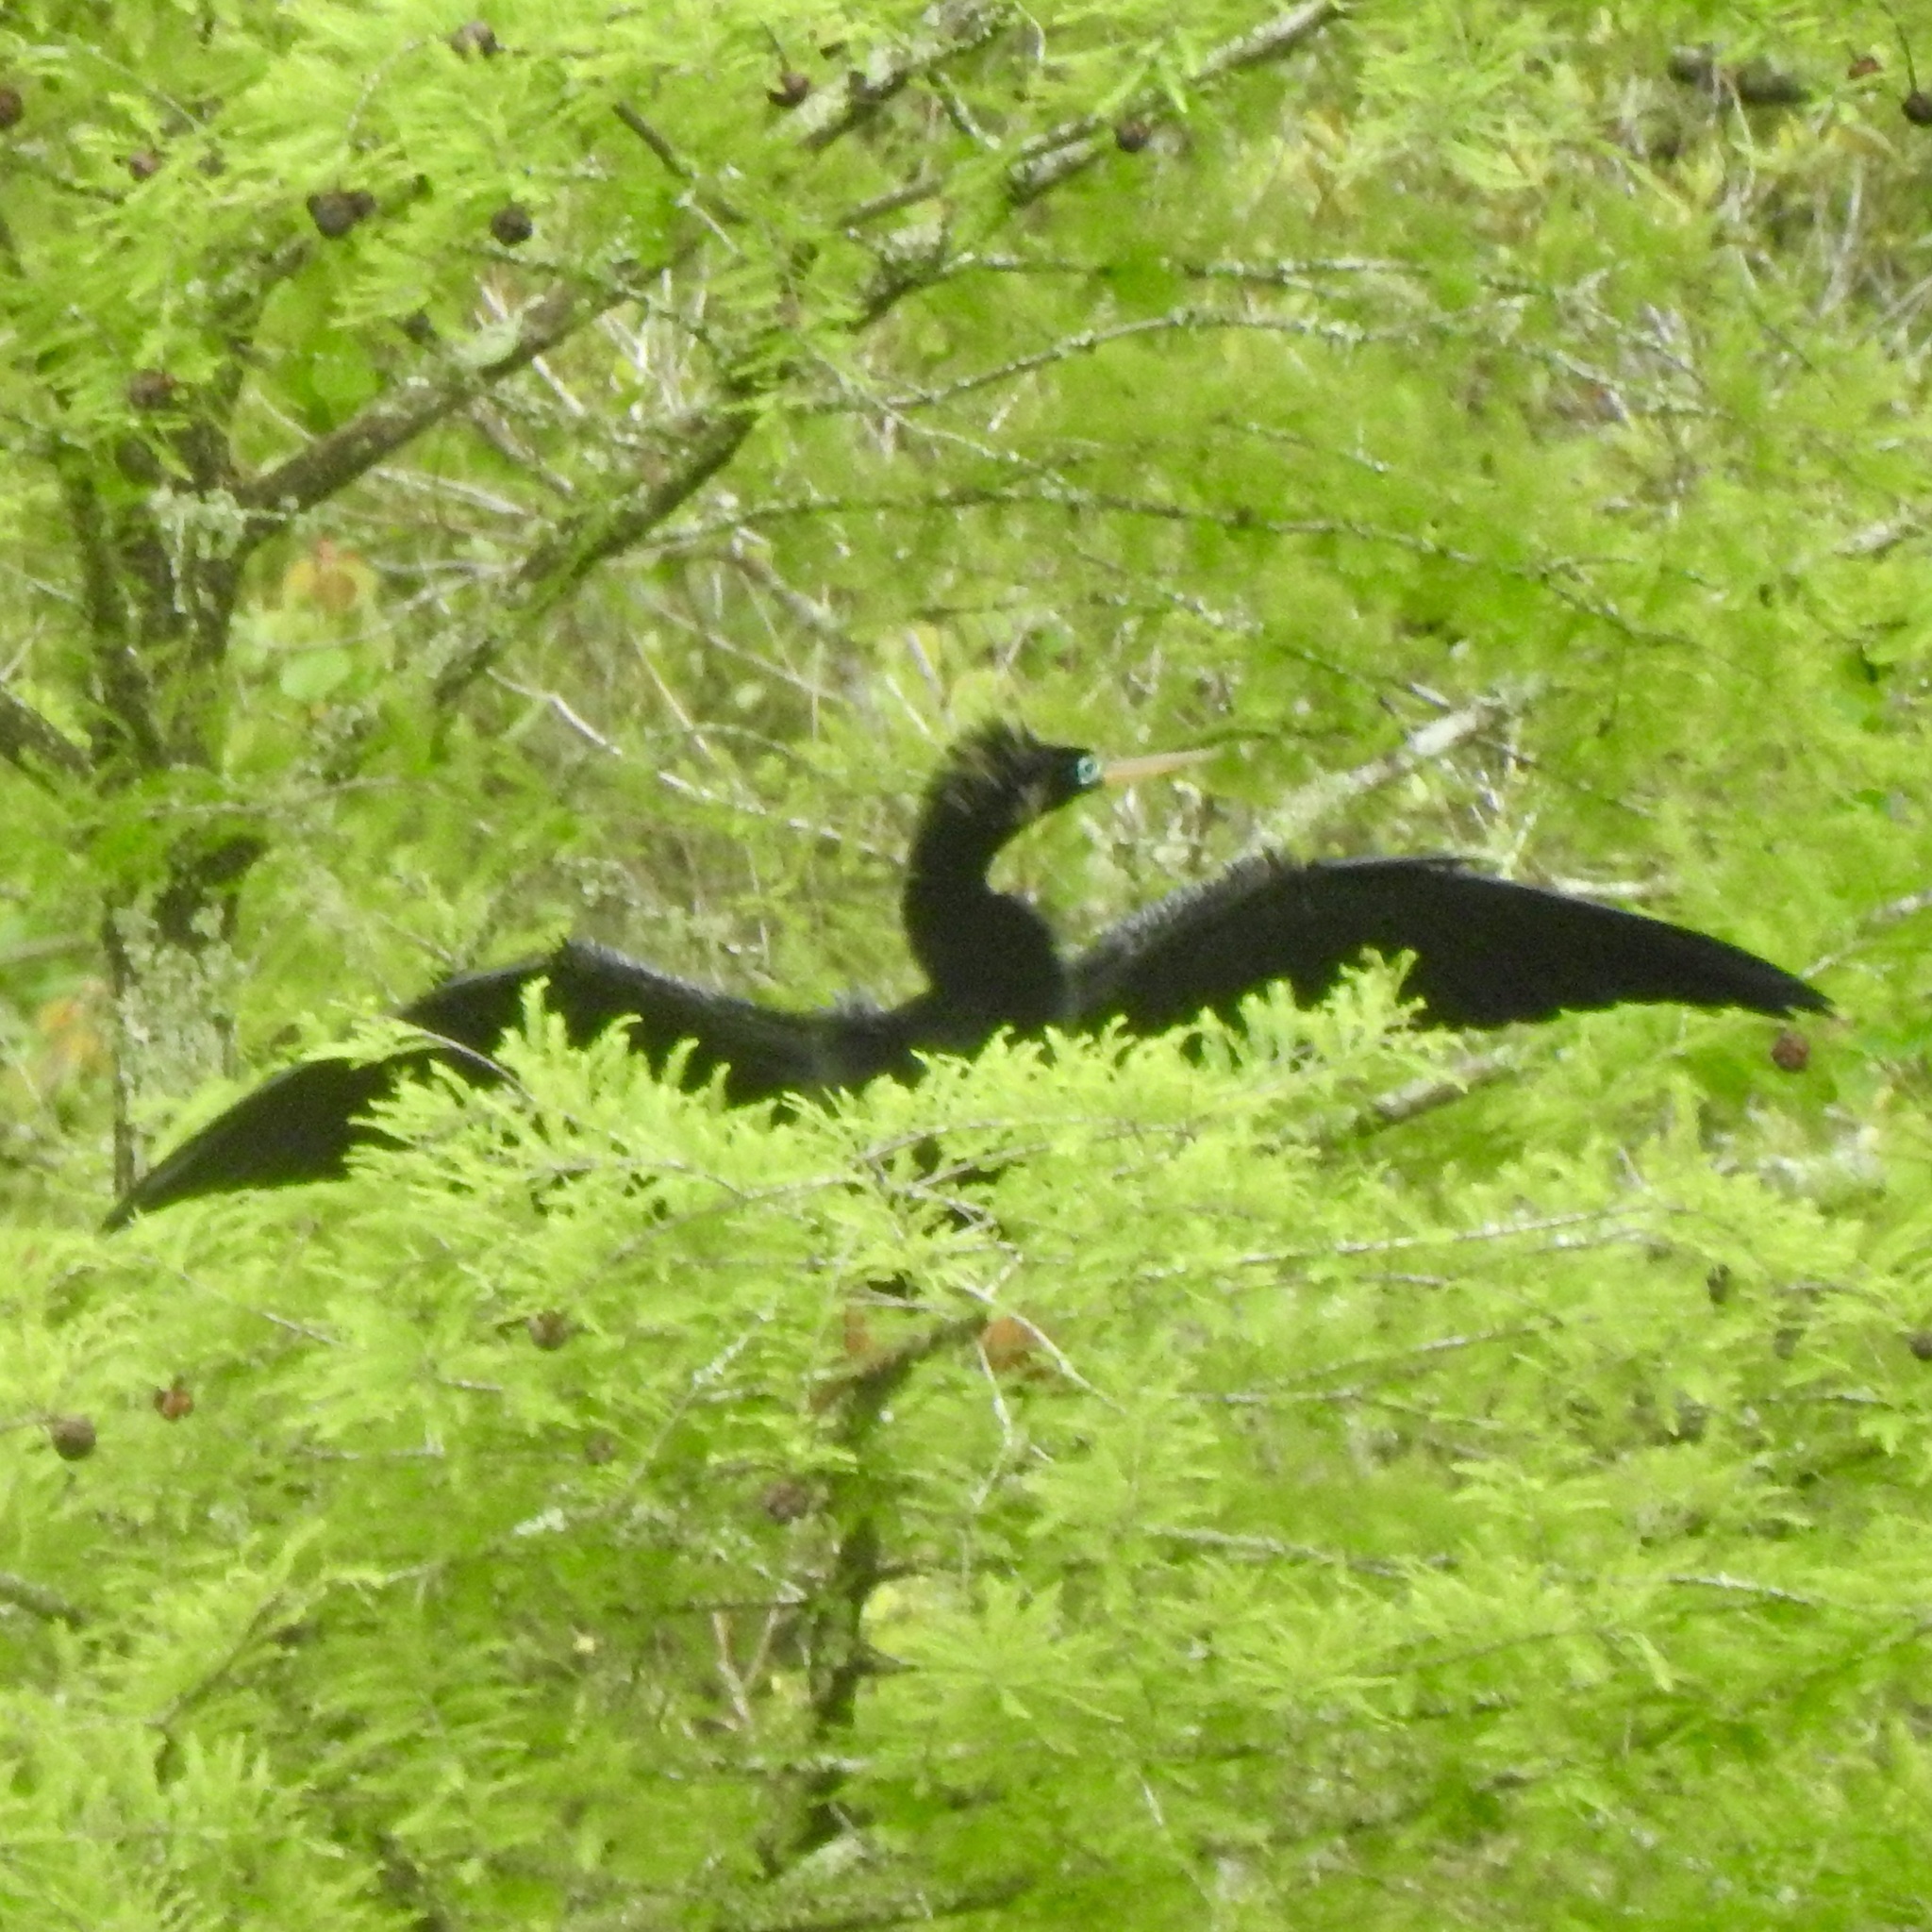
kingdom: Animalia
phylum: Chordata
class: Aves
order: Suliformes
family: Anhingidae
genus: Anhinga
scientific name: Anhinga anhinga
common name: Anhinga
